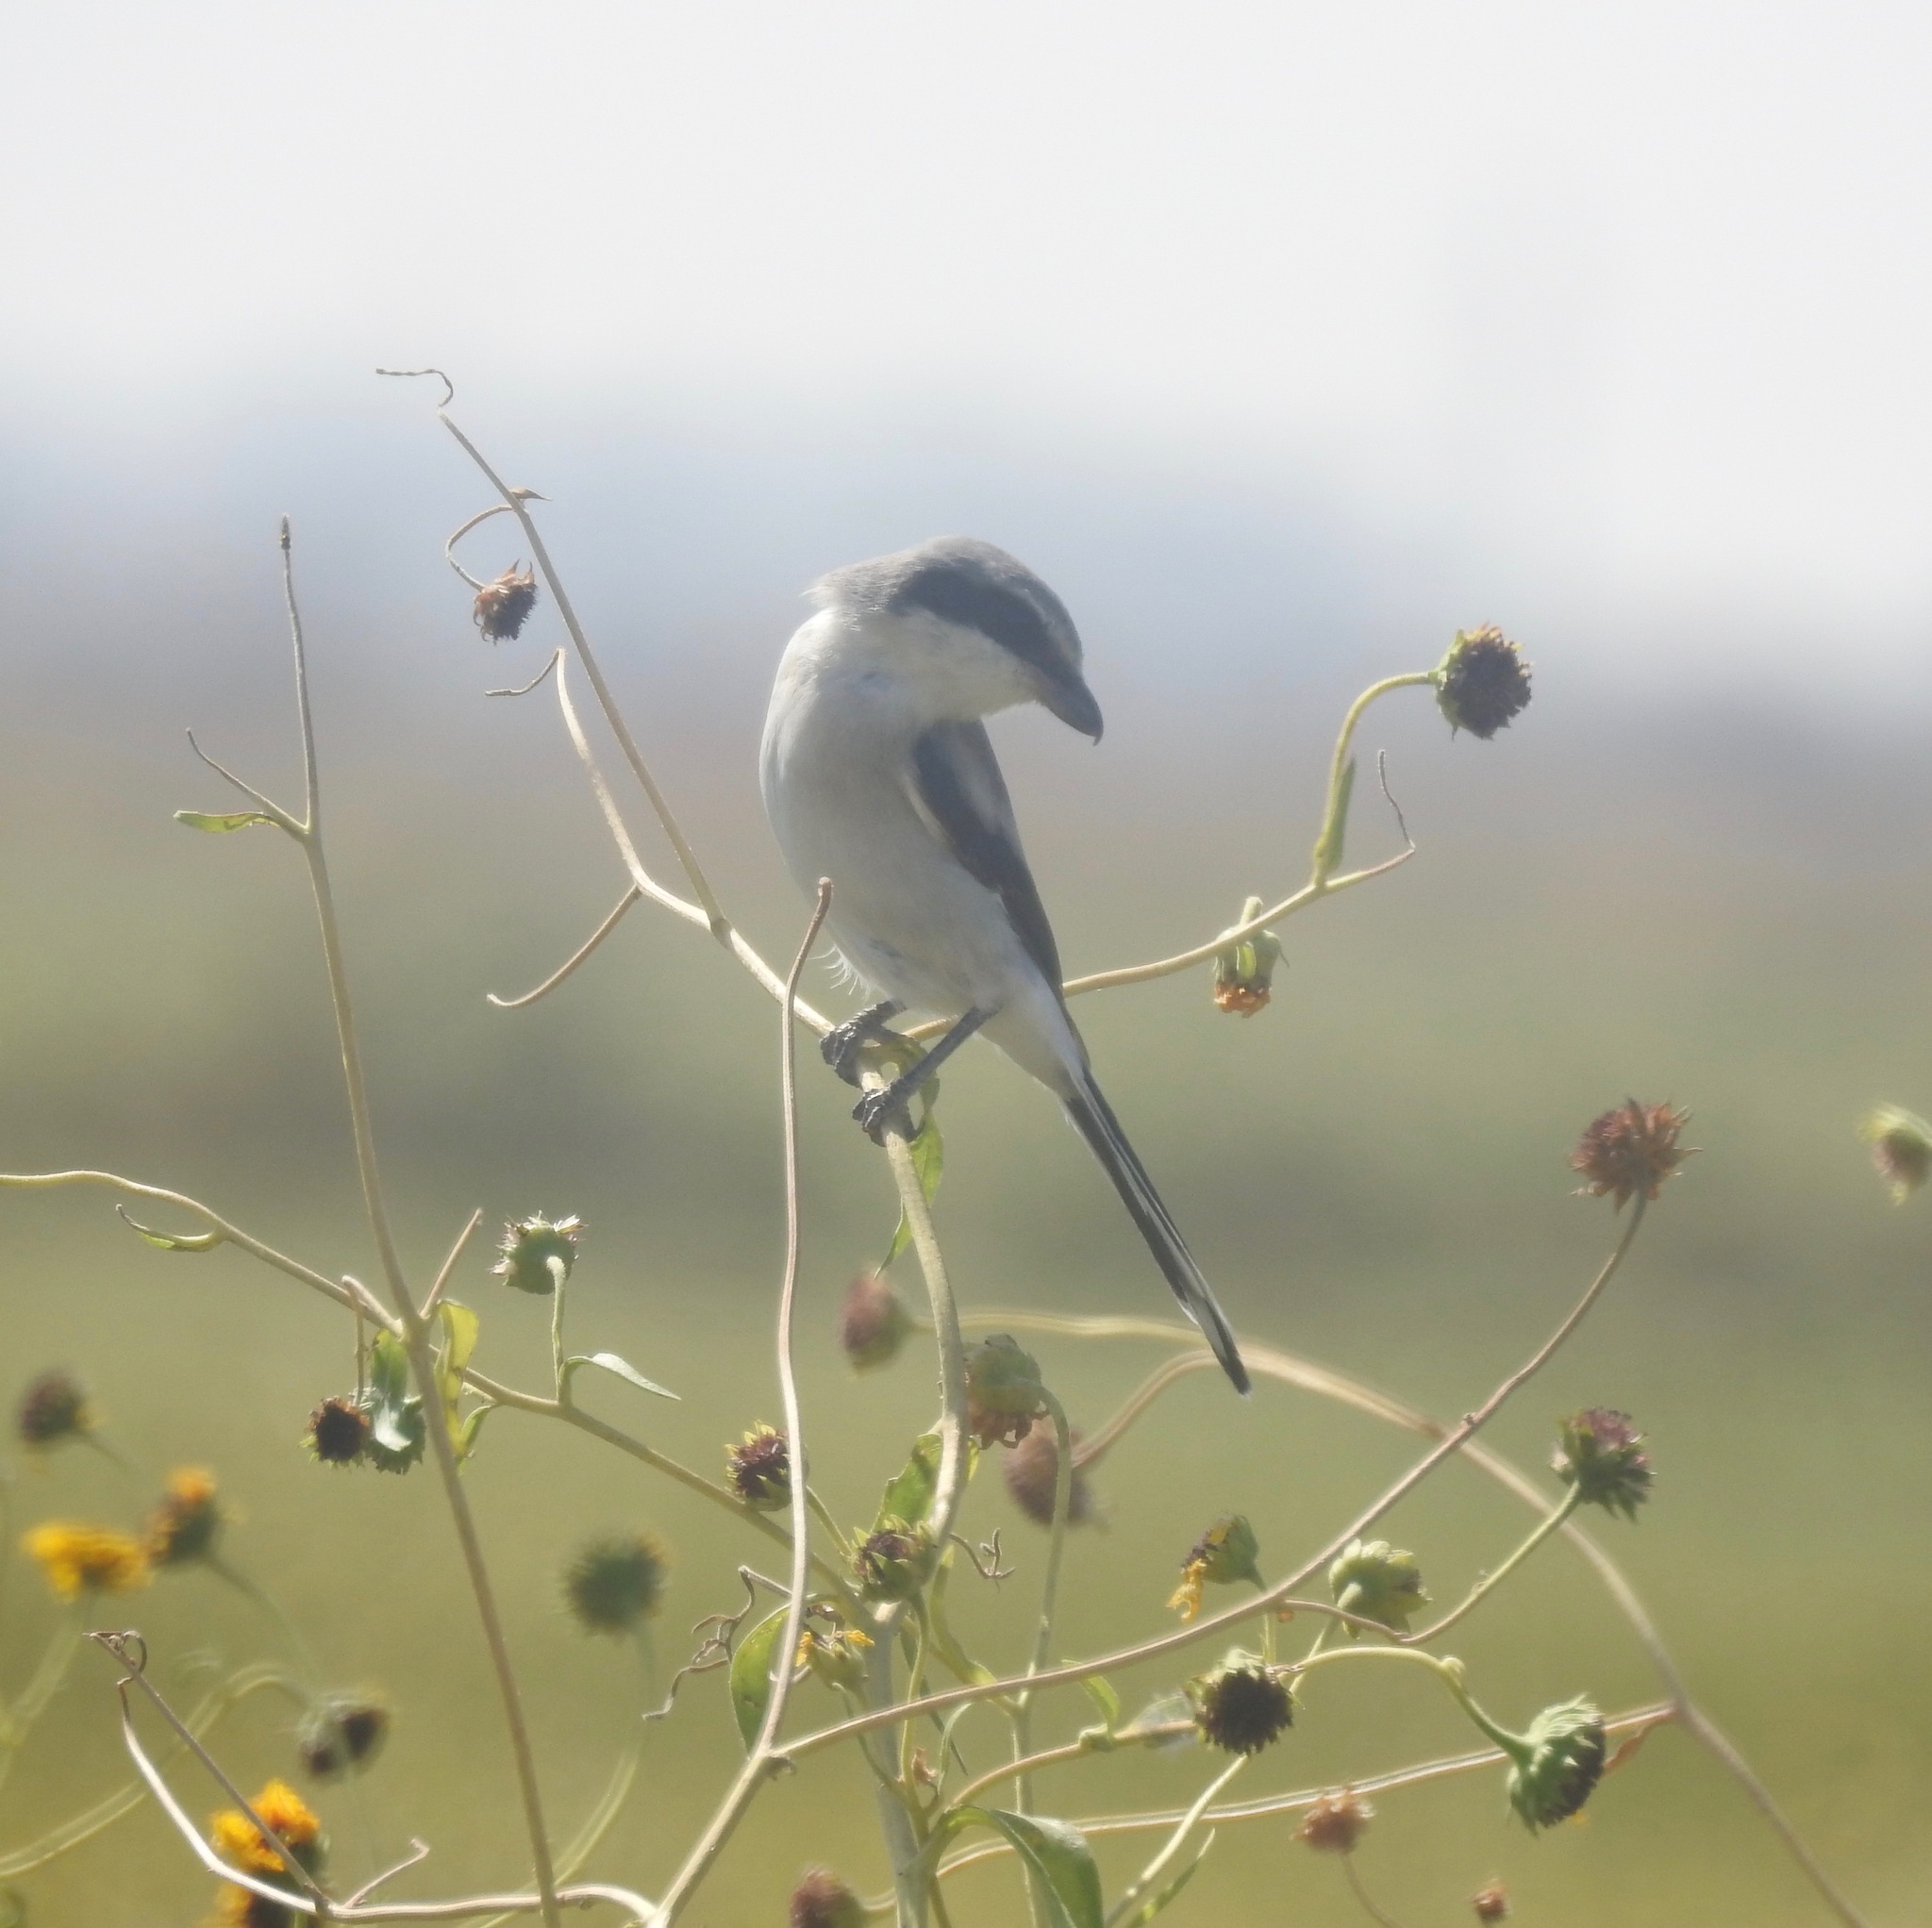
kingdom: Animalia
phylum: Chordata
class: Aves
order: Passeriformes
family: Laniidae
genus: Lanius
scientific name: Lanius ludovicianus
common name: Loggerhead shrike
